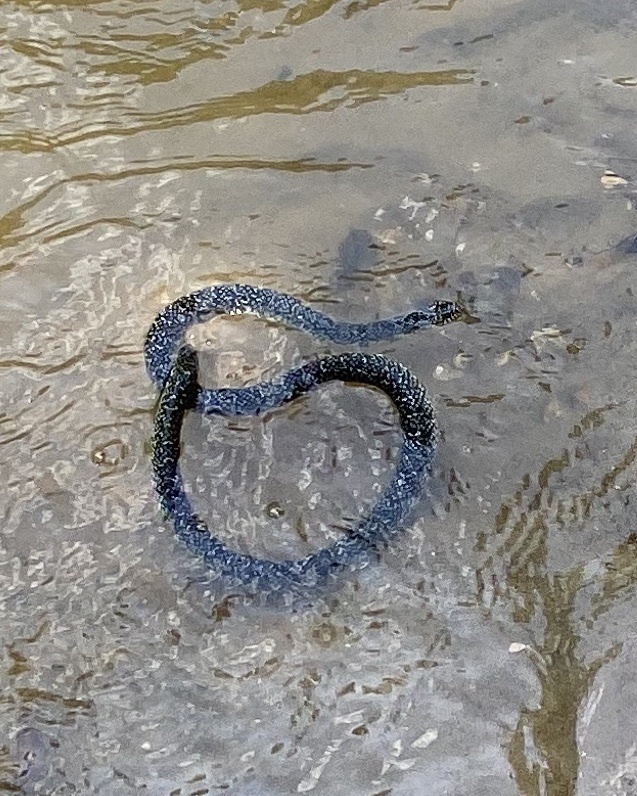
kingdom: Animalia
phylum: Chordata
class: Squamata
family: Colubridae
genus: Lampropeltis
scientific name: Lampropeltis holbrooki
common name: Speckled kingsnake
